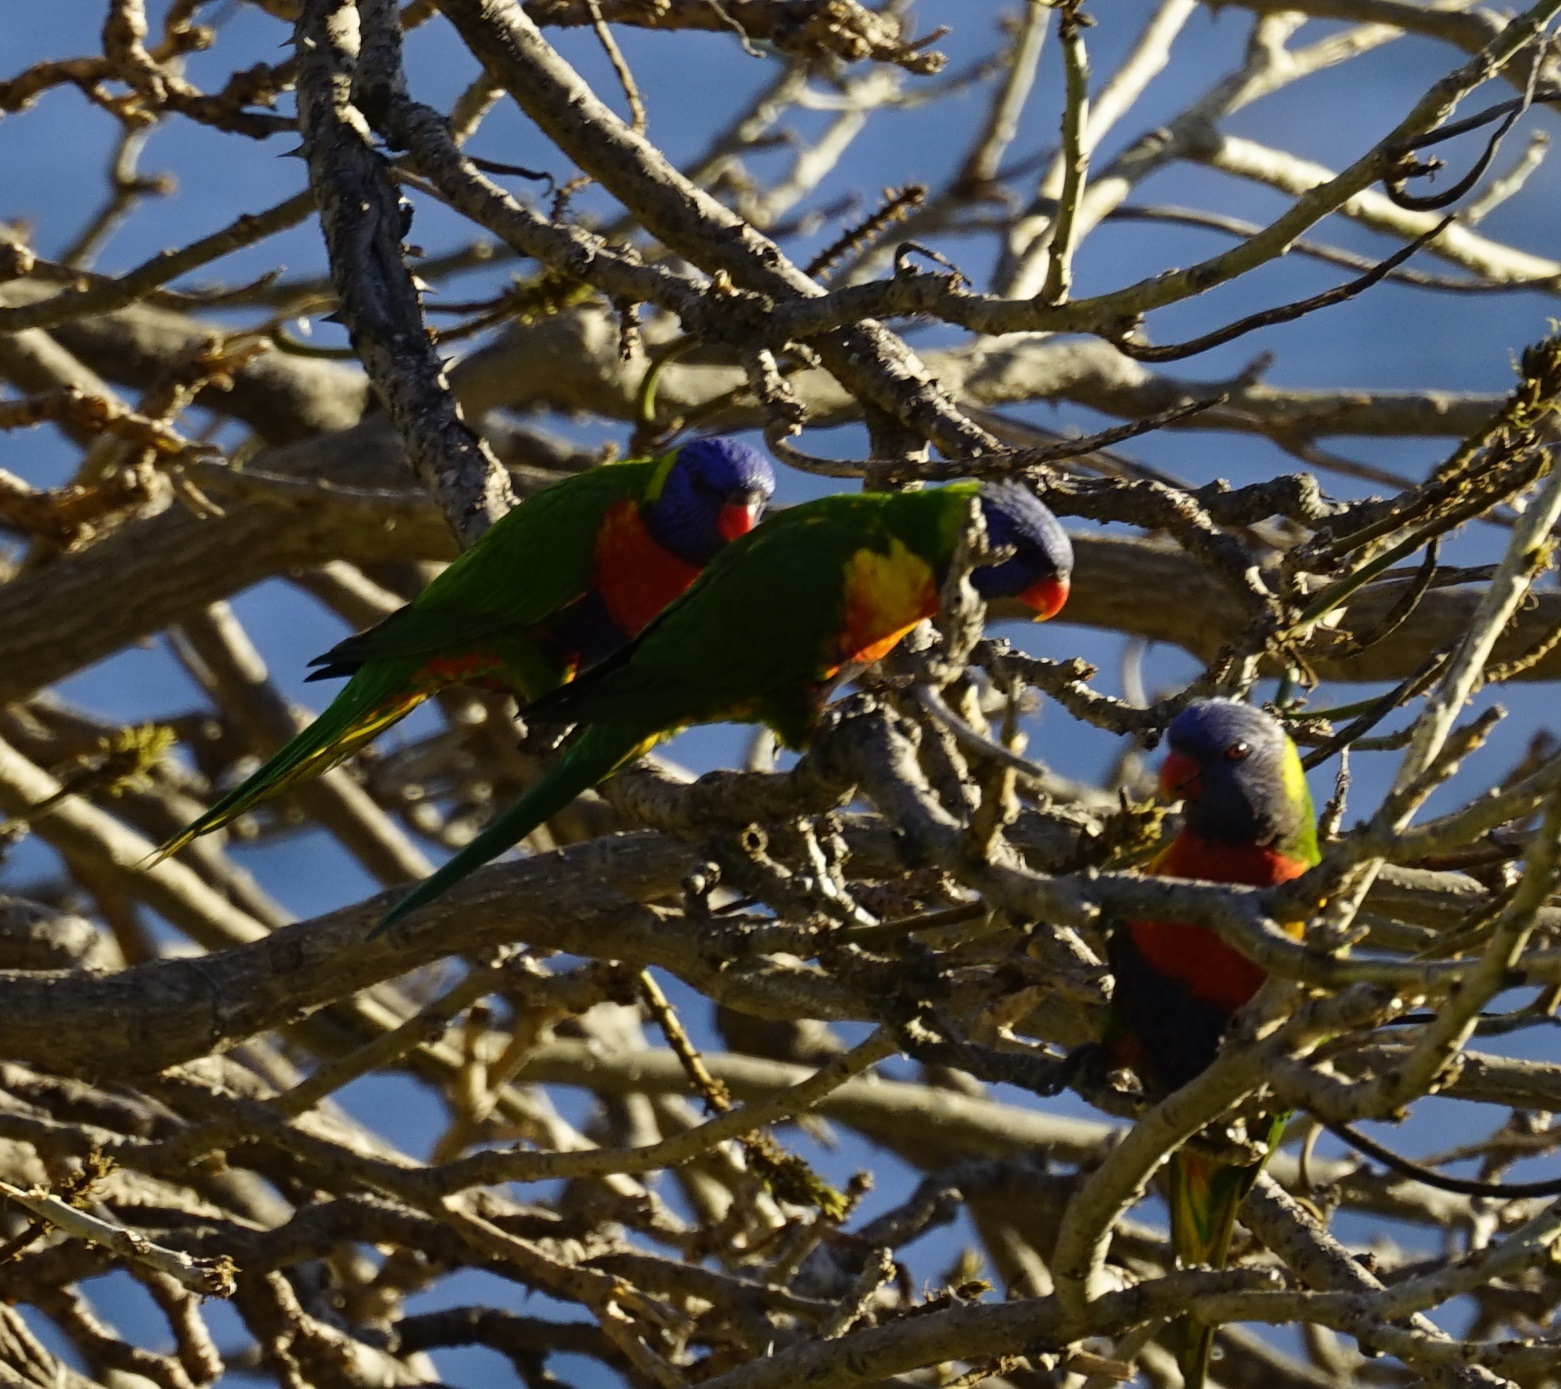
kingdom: Animalia
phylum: Chordata
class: Aves
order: Psittaciformes
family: Psittacidae
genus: Trichoglossus
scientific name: Trichoglossus haematodus
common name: Coconut lorikeet
